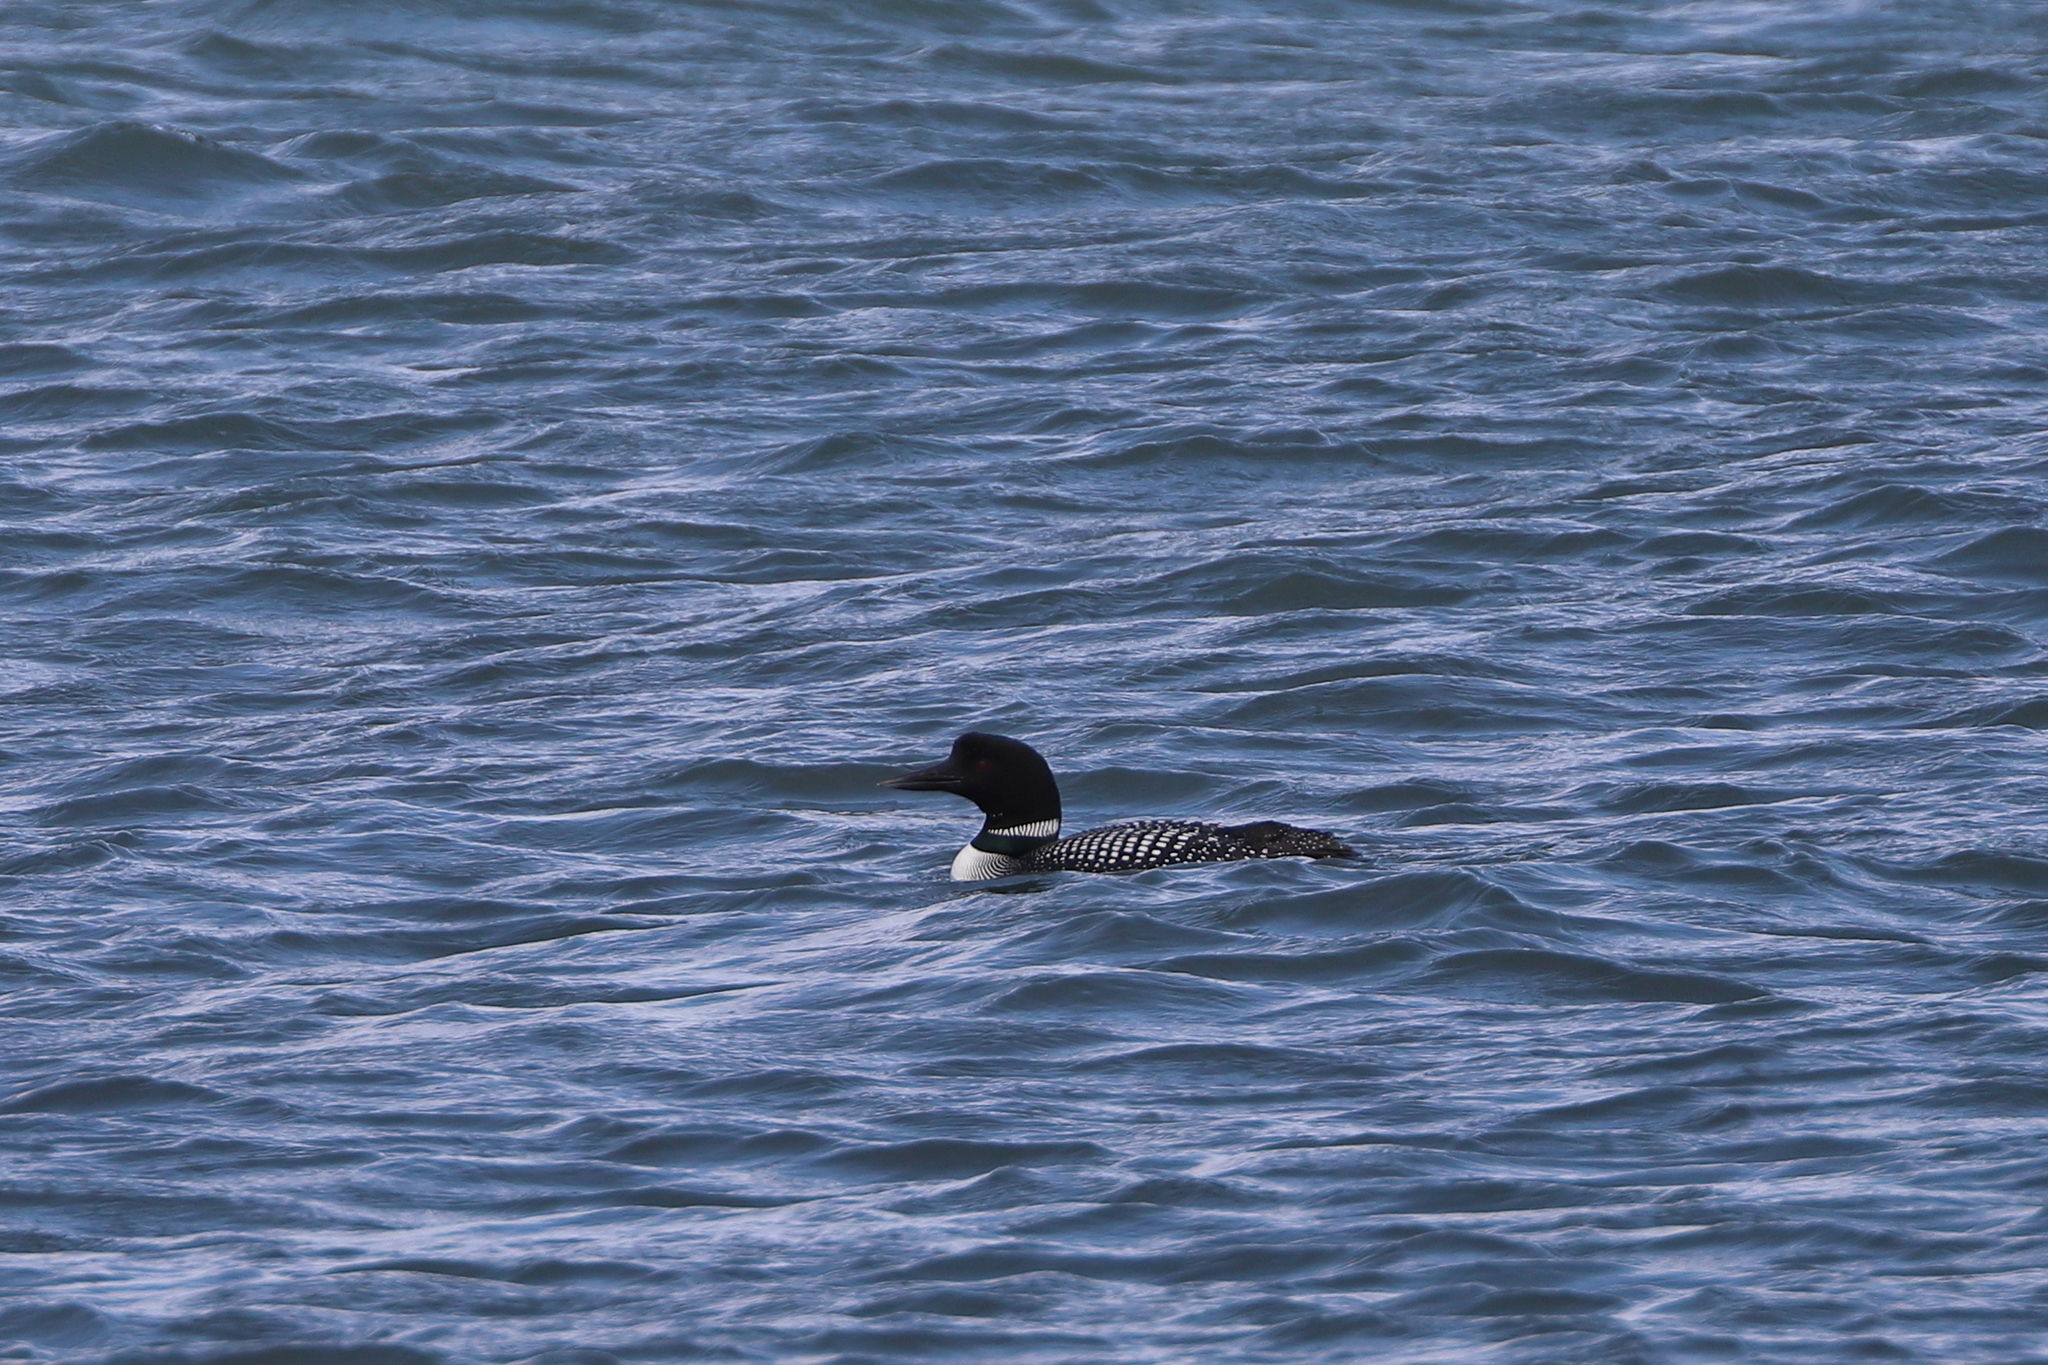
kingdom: Animalia
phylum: Chordata
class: Aves
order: Gaviiformes
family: Gaviidae
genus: Gavia
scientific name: Gavia immer
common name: Common loon
